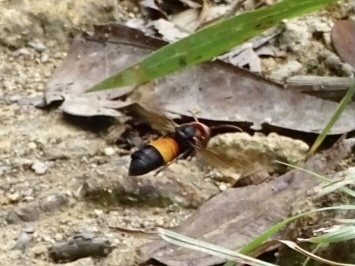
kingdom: Animalia
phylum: Arthropoda
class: Insecta
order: Hymenoptera
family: Vespidae
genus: Vespa
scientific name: Vespa affinis
